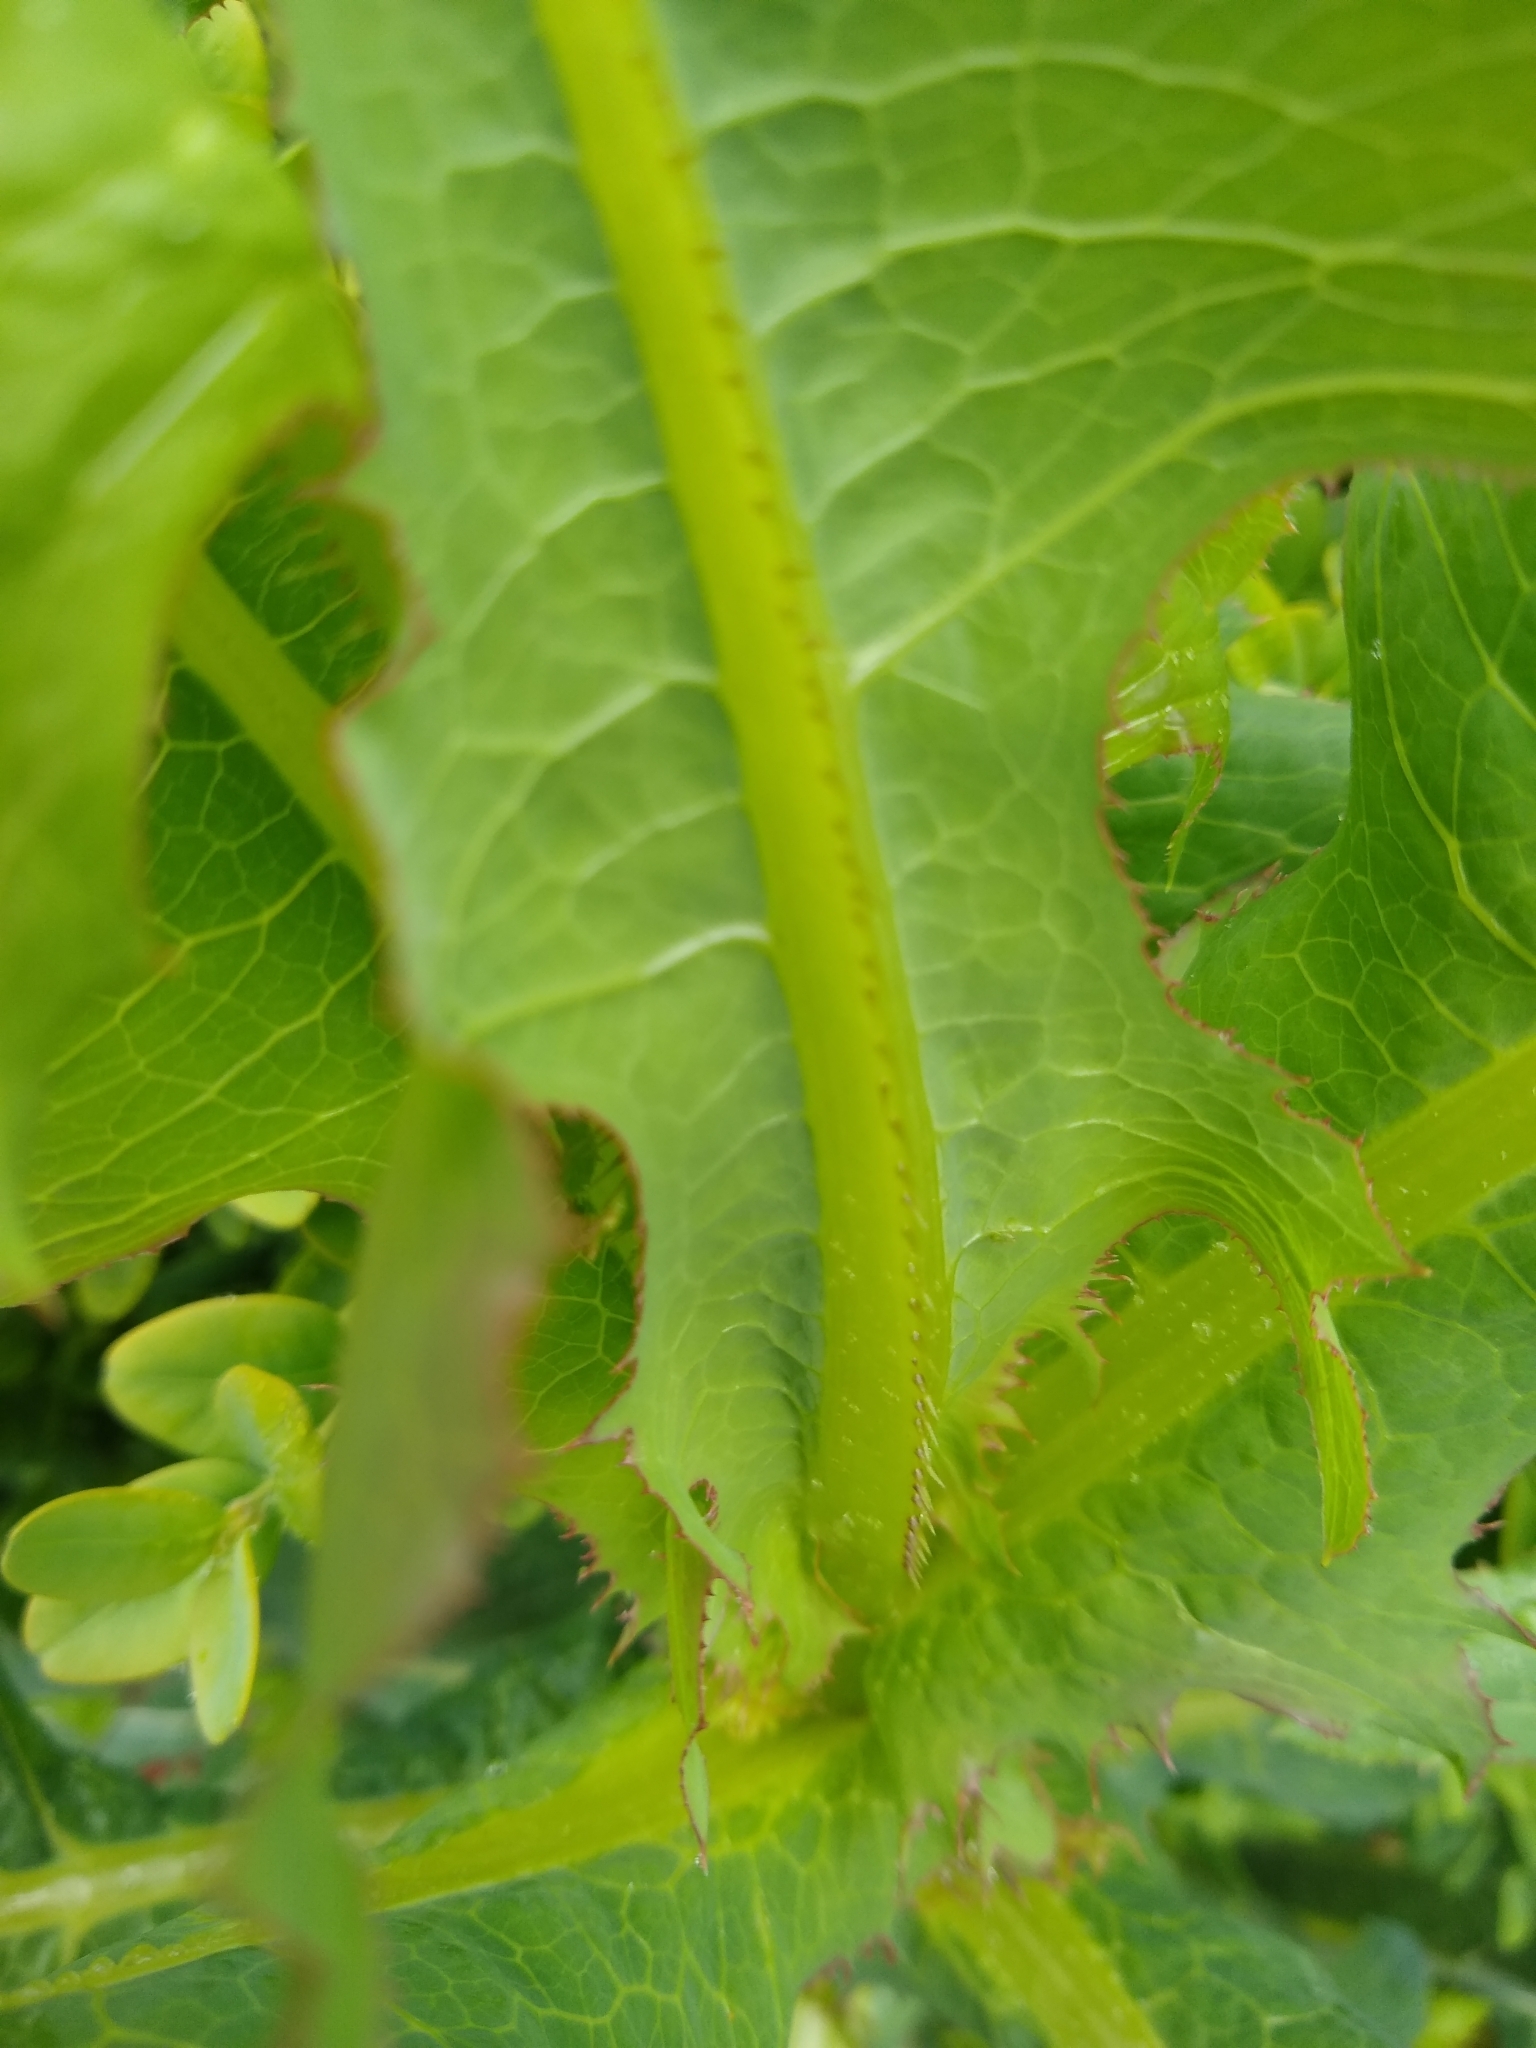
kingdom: Plantae
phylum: Tracheophyta
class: Magnoliopsida
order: Asterales
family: Asteraceae
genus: Lactuca
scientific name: Lactuca serriola
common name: Prickly lettuce
